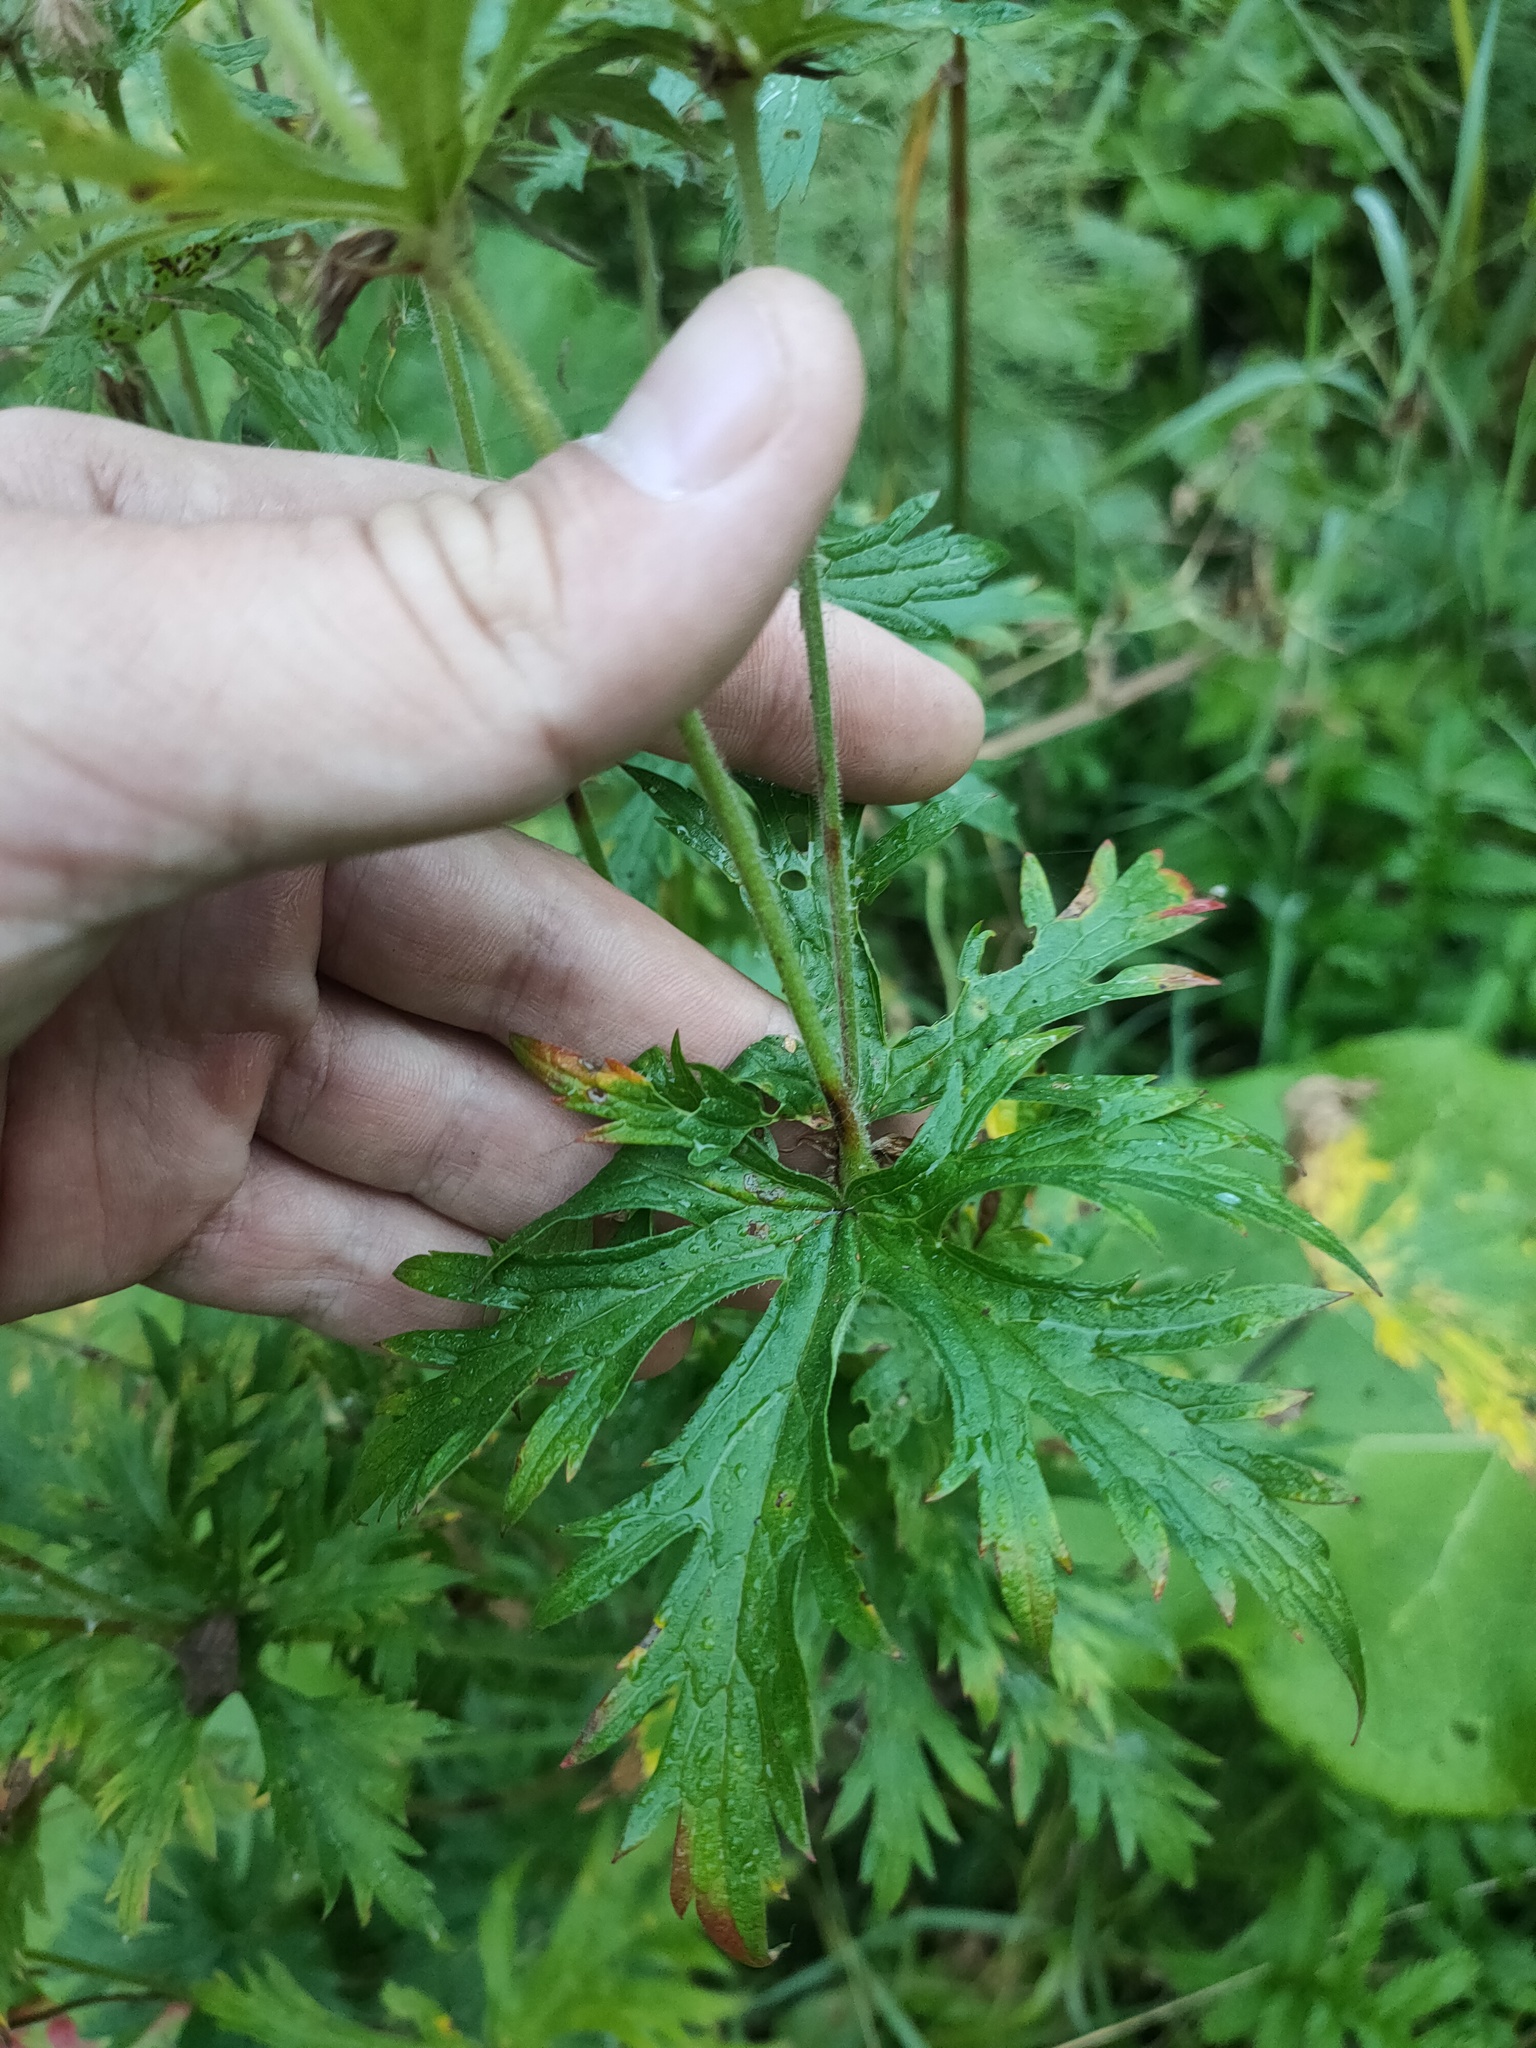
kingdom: Plantae
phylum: Tracheophyta
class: Magnoliopsida
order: Geraniales
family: Geraniaceae
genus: Geranium
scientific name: Geranium pratense
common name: Meadow crane's-bill
